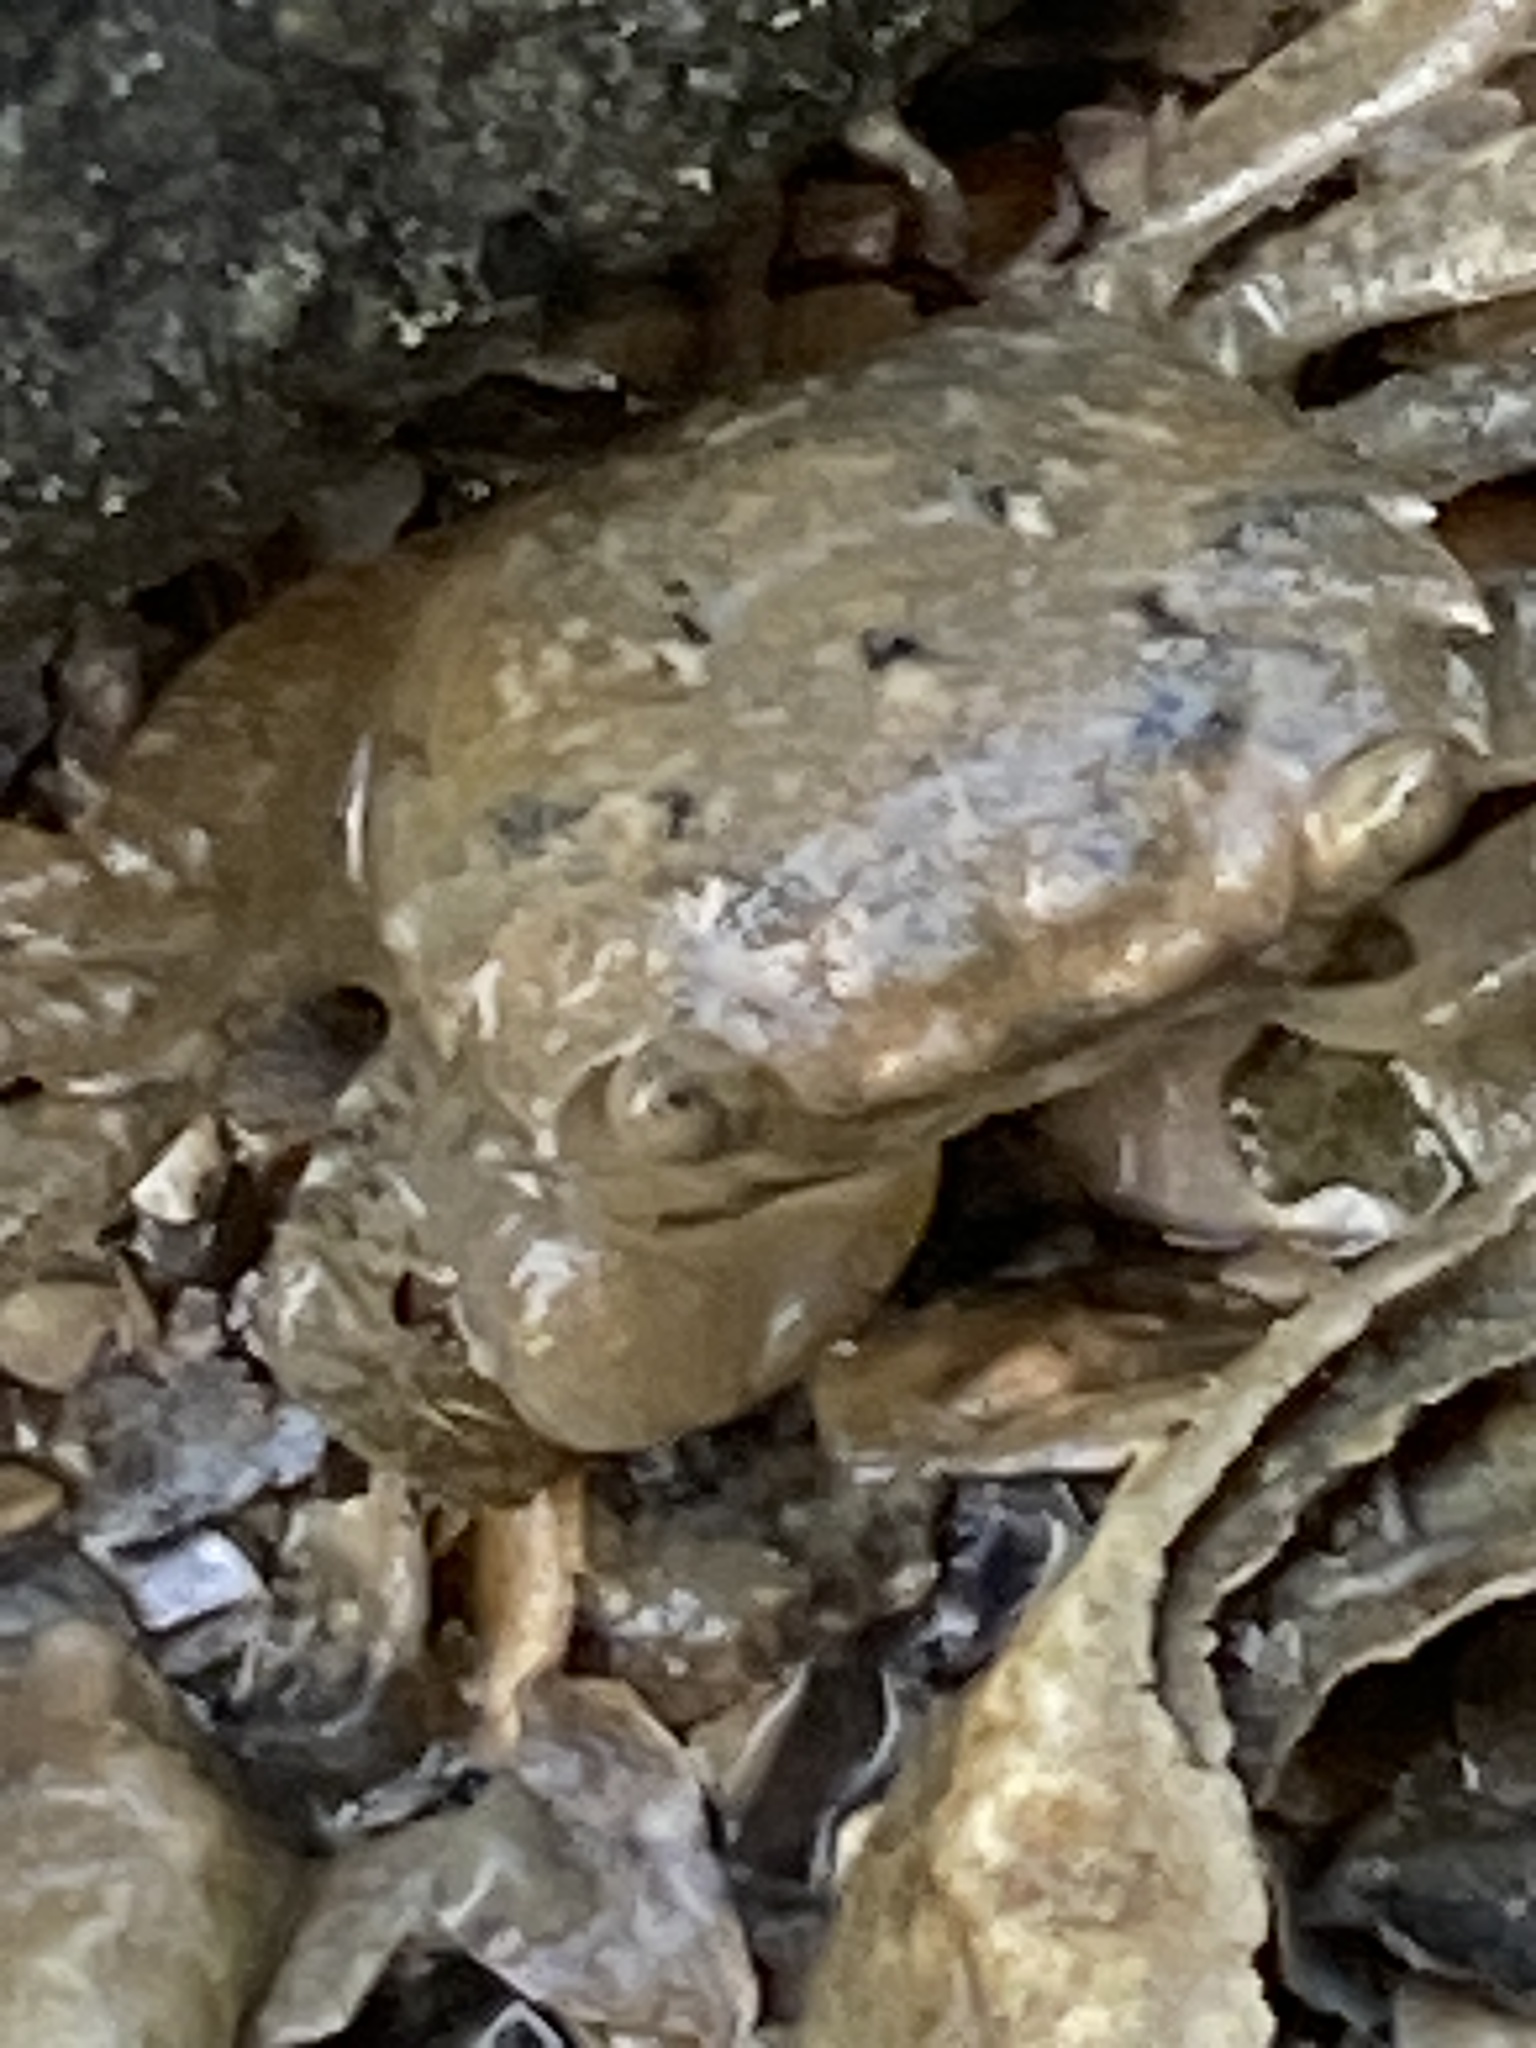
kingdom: Animalia
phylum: Arthropoda
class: Malacostraca
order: Decapoda
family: Varunidae
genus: Hemigrapsus
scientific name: Hemigrapsus oregonensis
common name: Yellow shore crab
